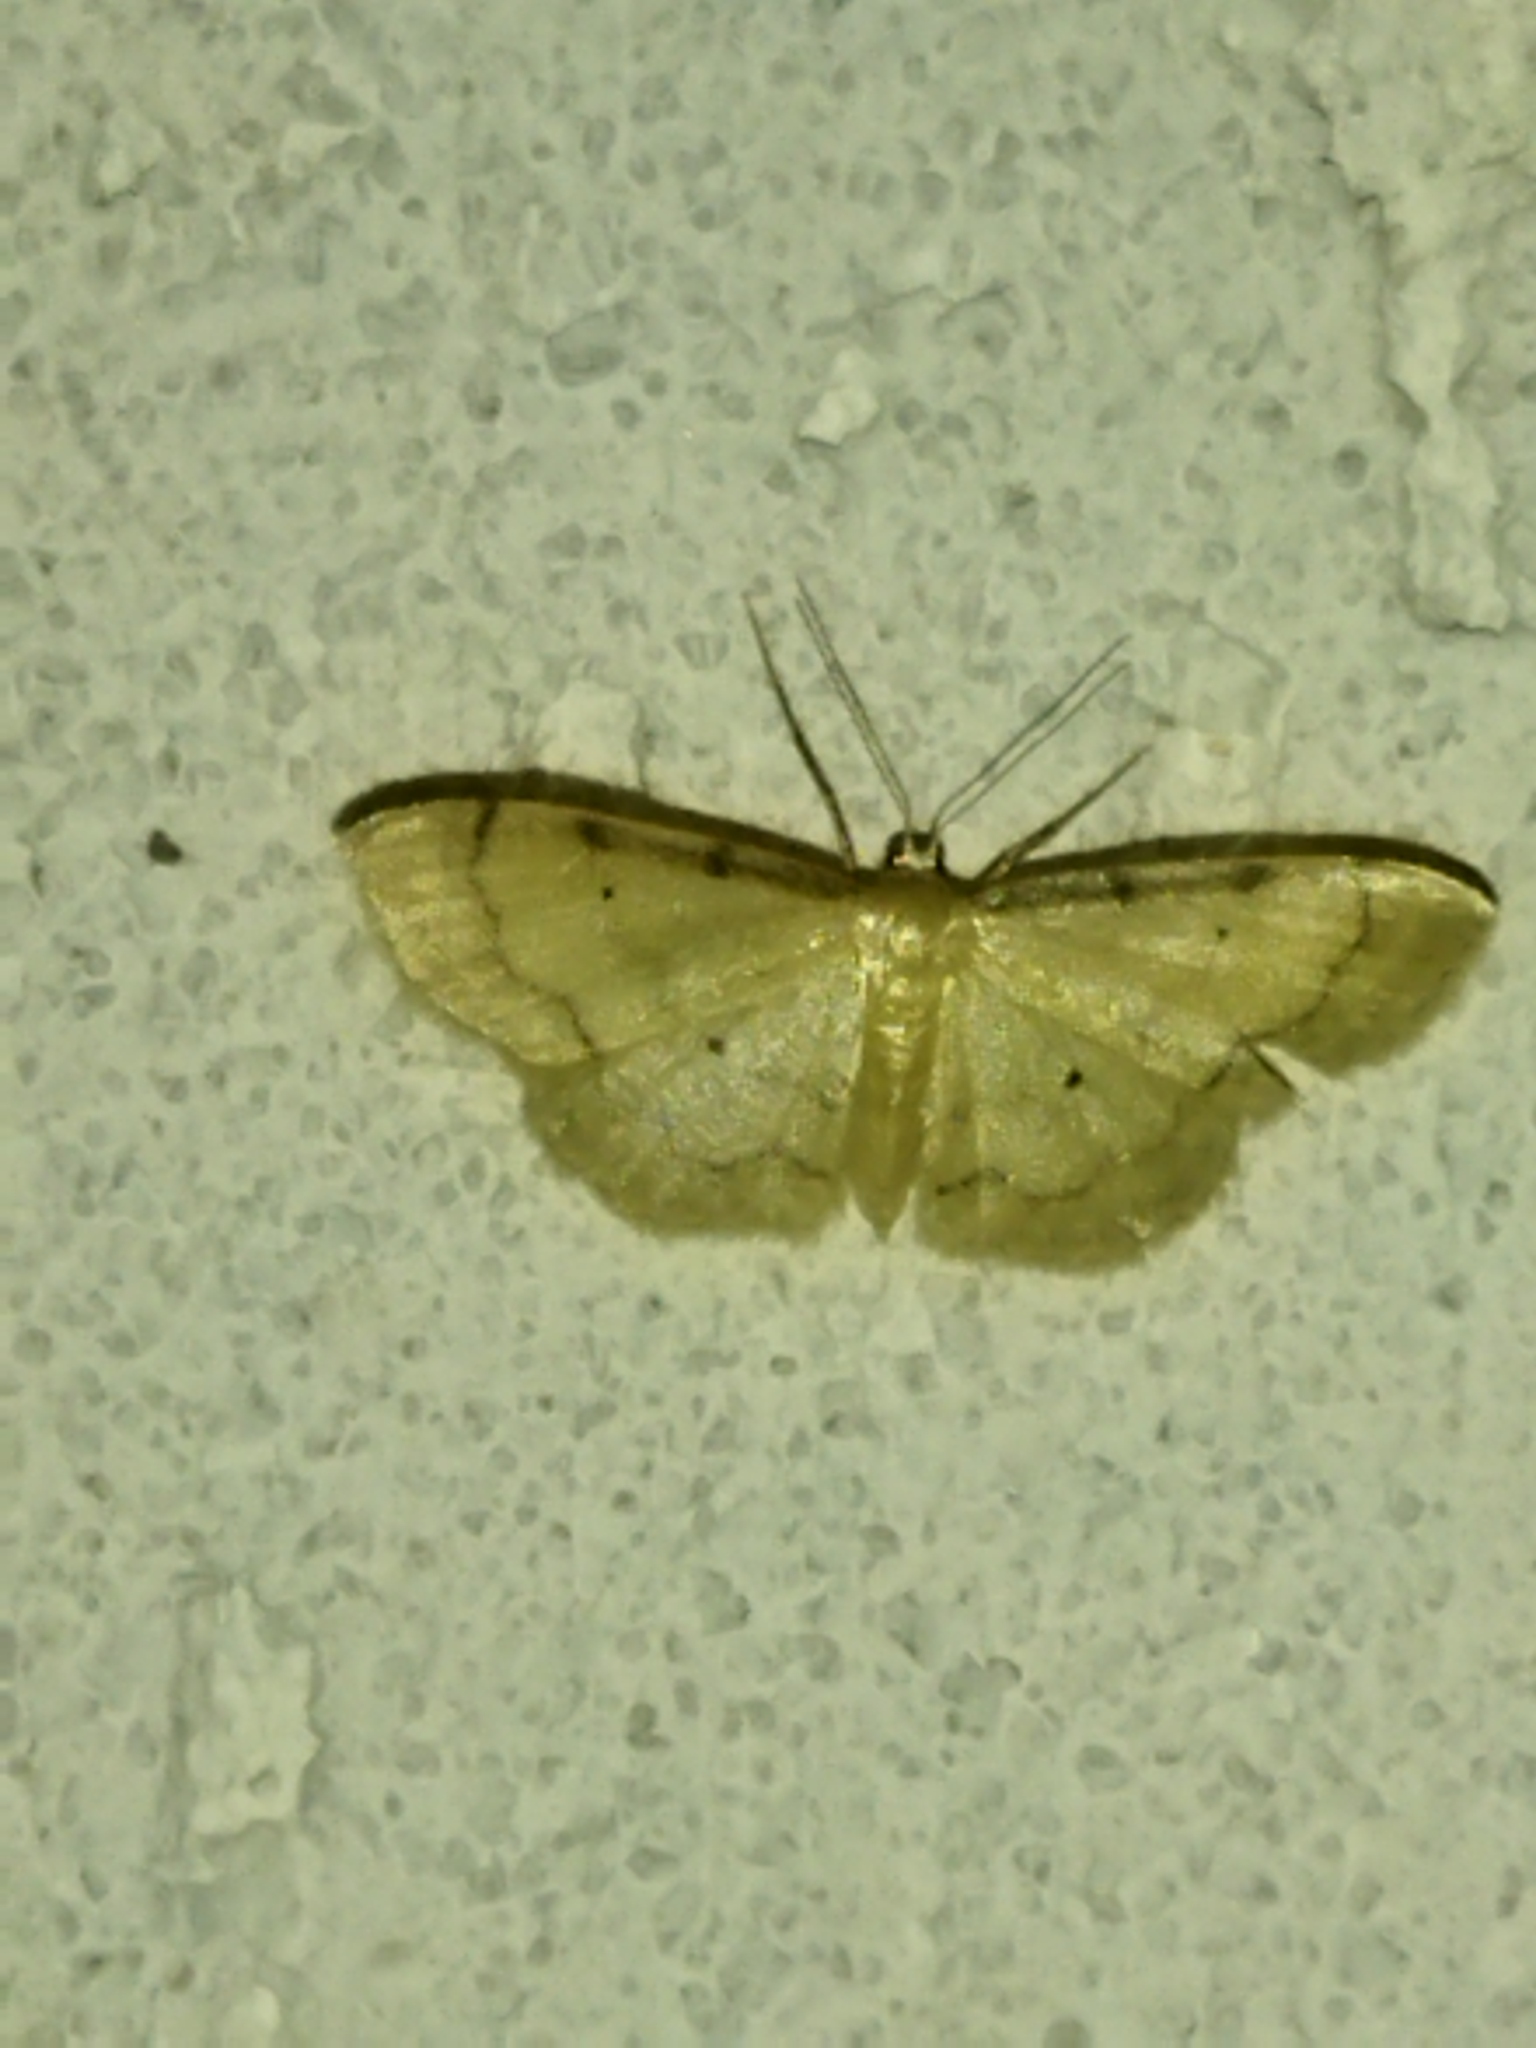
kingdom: Animalia
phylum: Arthropoda
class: Insecta
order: Lepidoptera
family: Geometridae
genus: Idaea
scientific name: Idaea politaria
